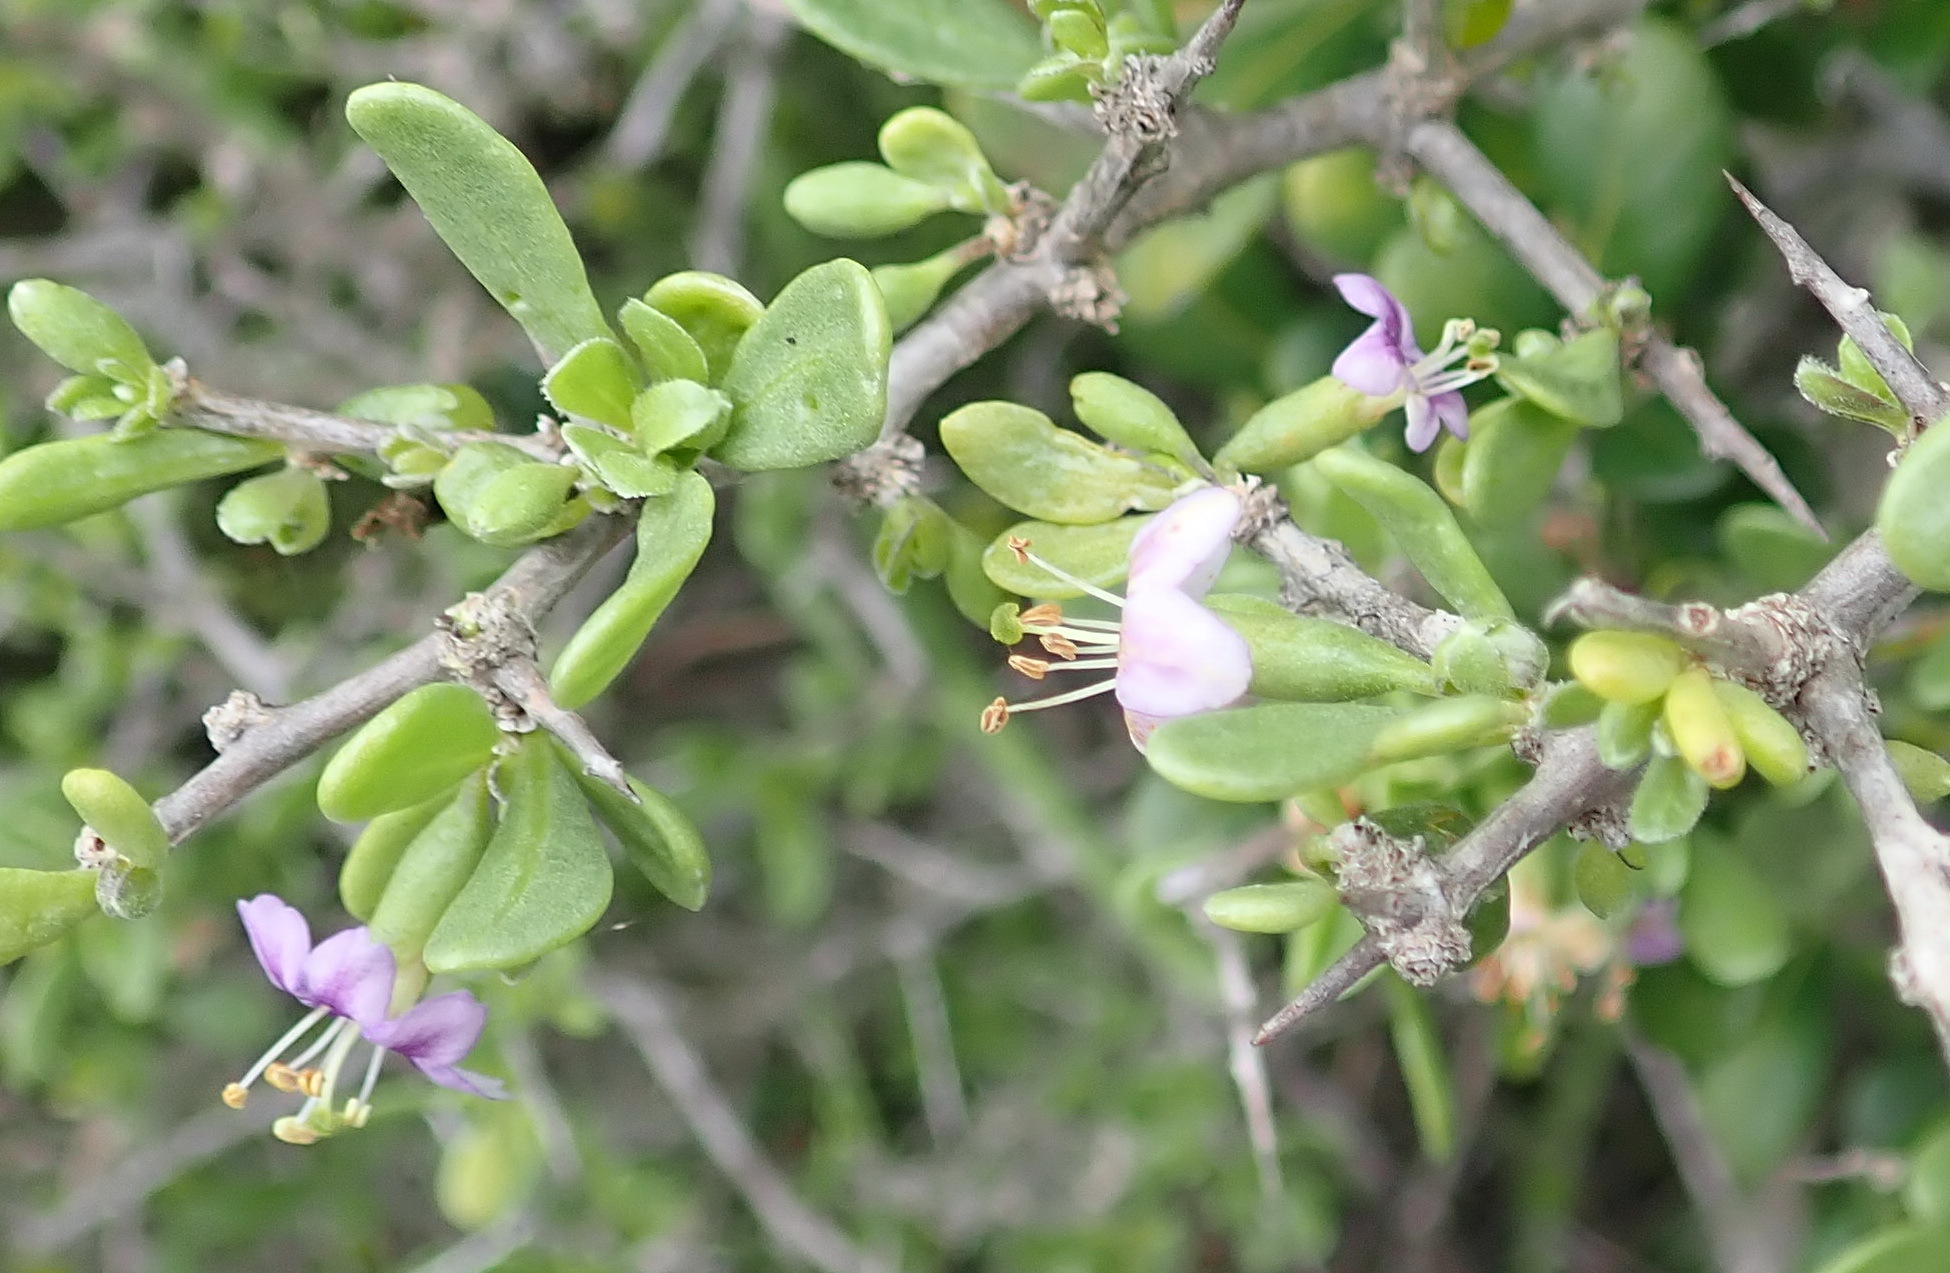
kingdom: Plantae
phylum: Tracheophyta
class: Magnoliopsida
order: Solanales
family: Solanaceae
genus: Lycium
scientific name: Lycium ferocissimum
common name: African boxthorn
